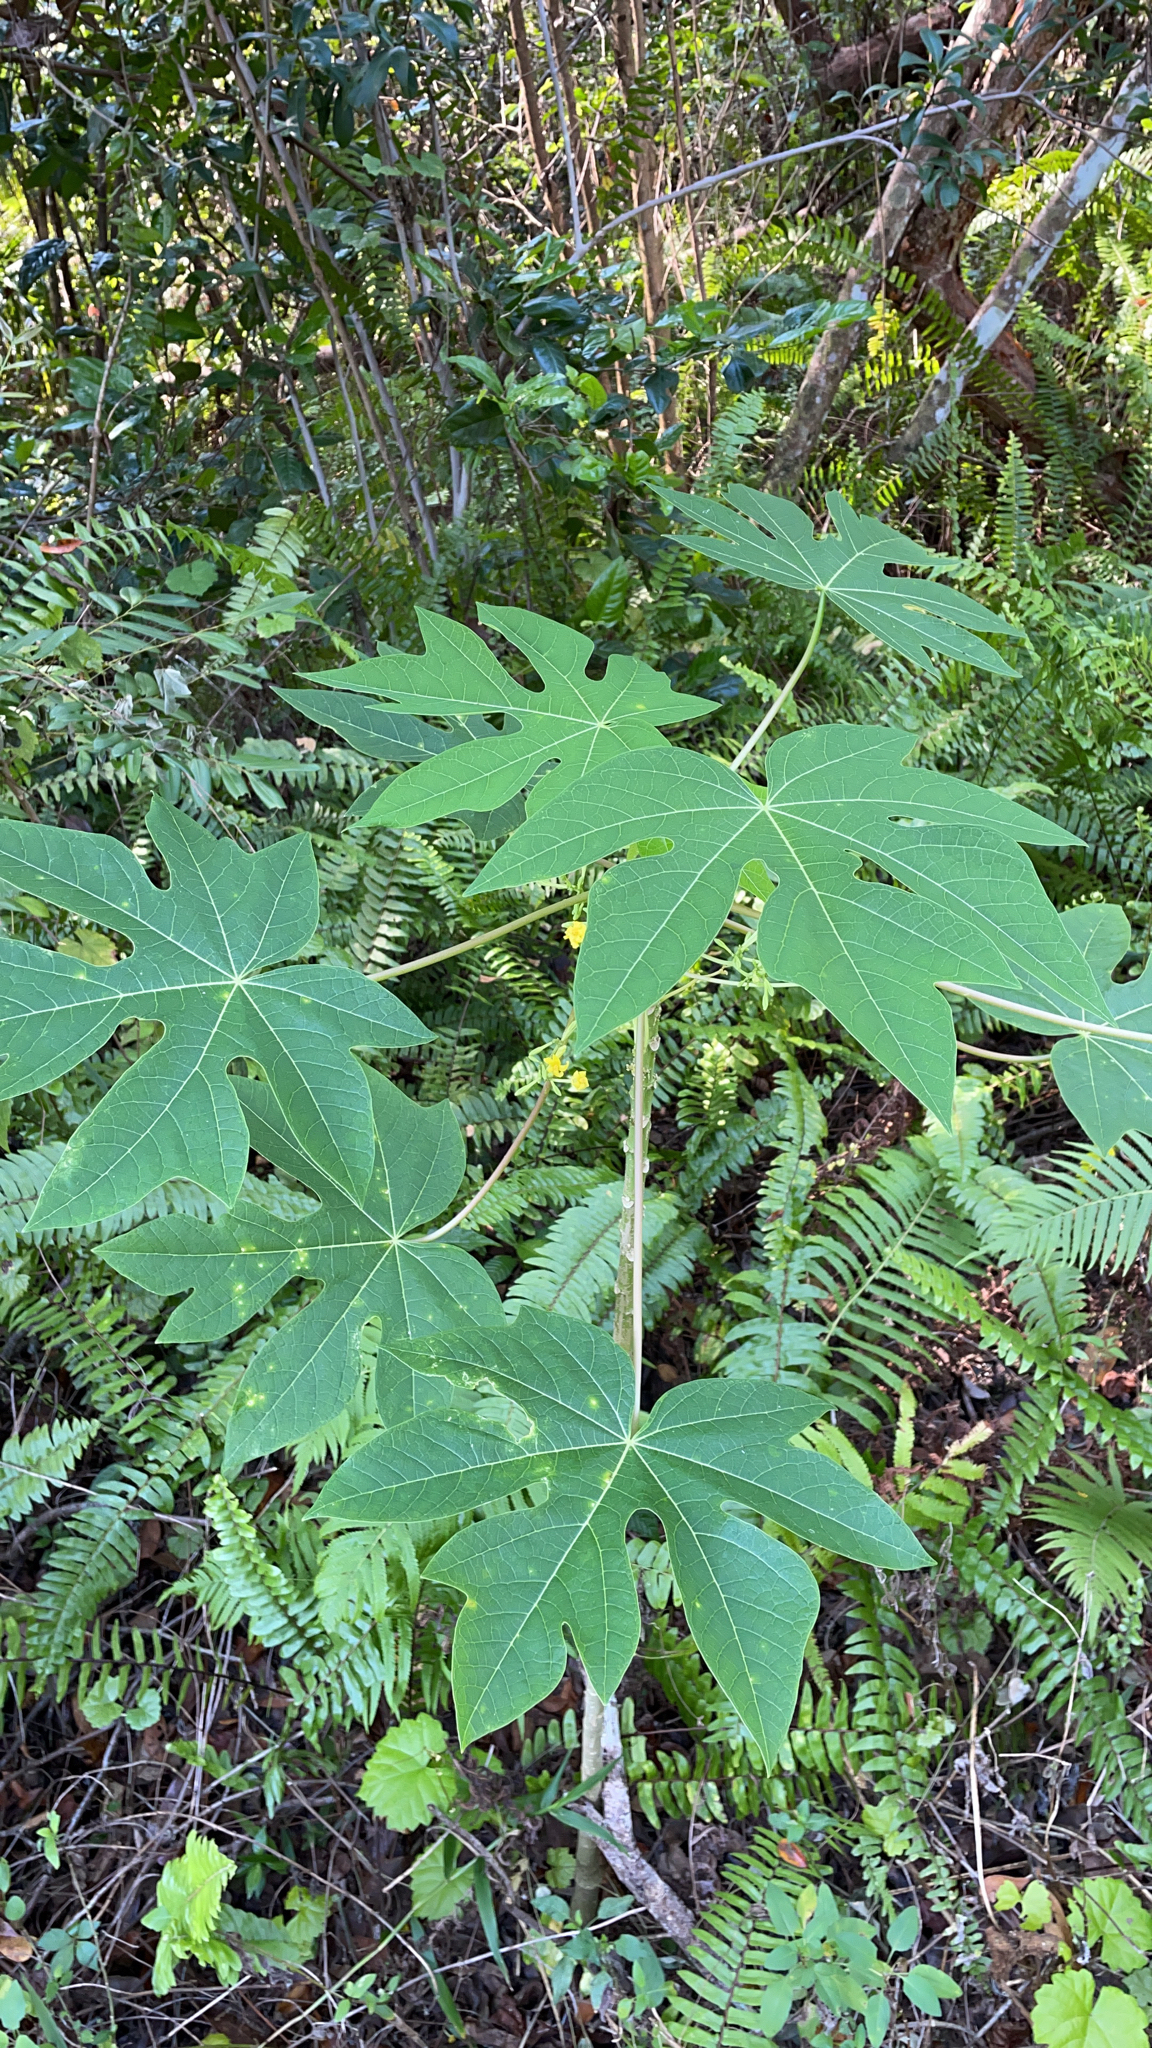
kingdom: Plantae
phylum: Tracheophyta
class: Magnoliopsida
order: Brassicales
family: Caricaceae
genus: Carica
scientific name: Carica papaya
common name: Papaya
